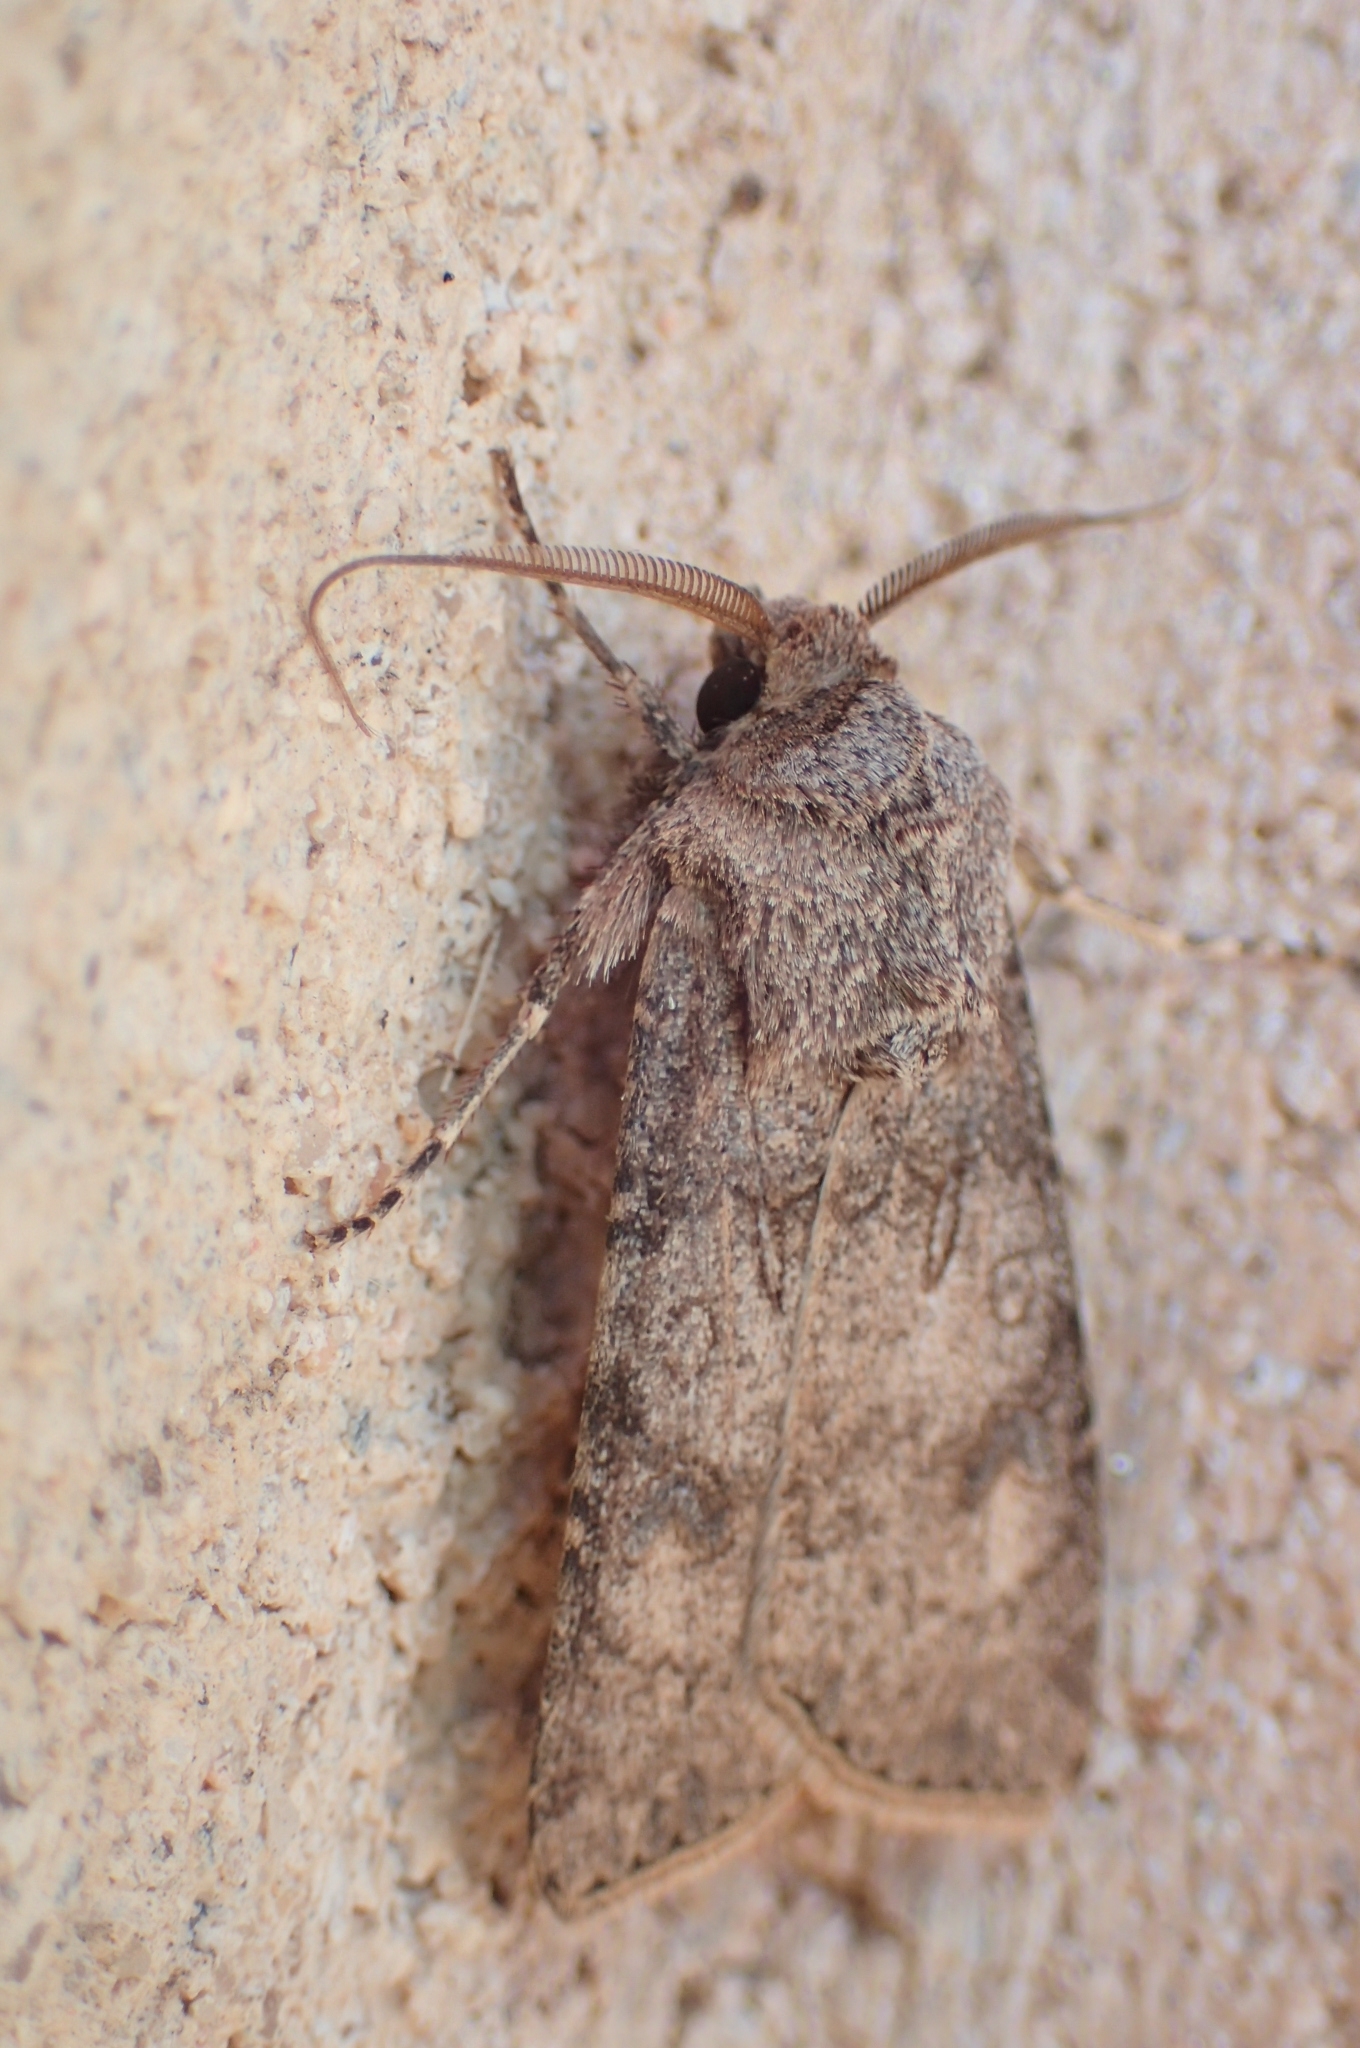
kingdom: Animalia
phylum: Arthropoda
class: Insecta
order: Lepidoptera
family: Noctuidae
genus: Agrotis
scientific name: Agrotis segetum
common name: Turnip moth
